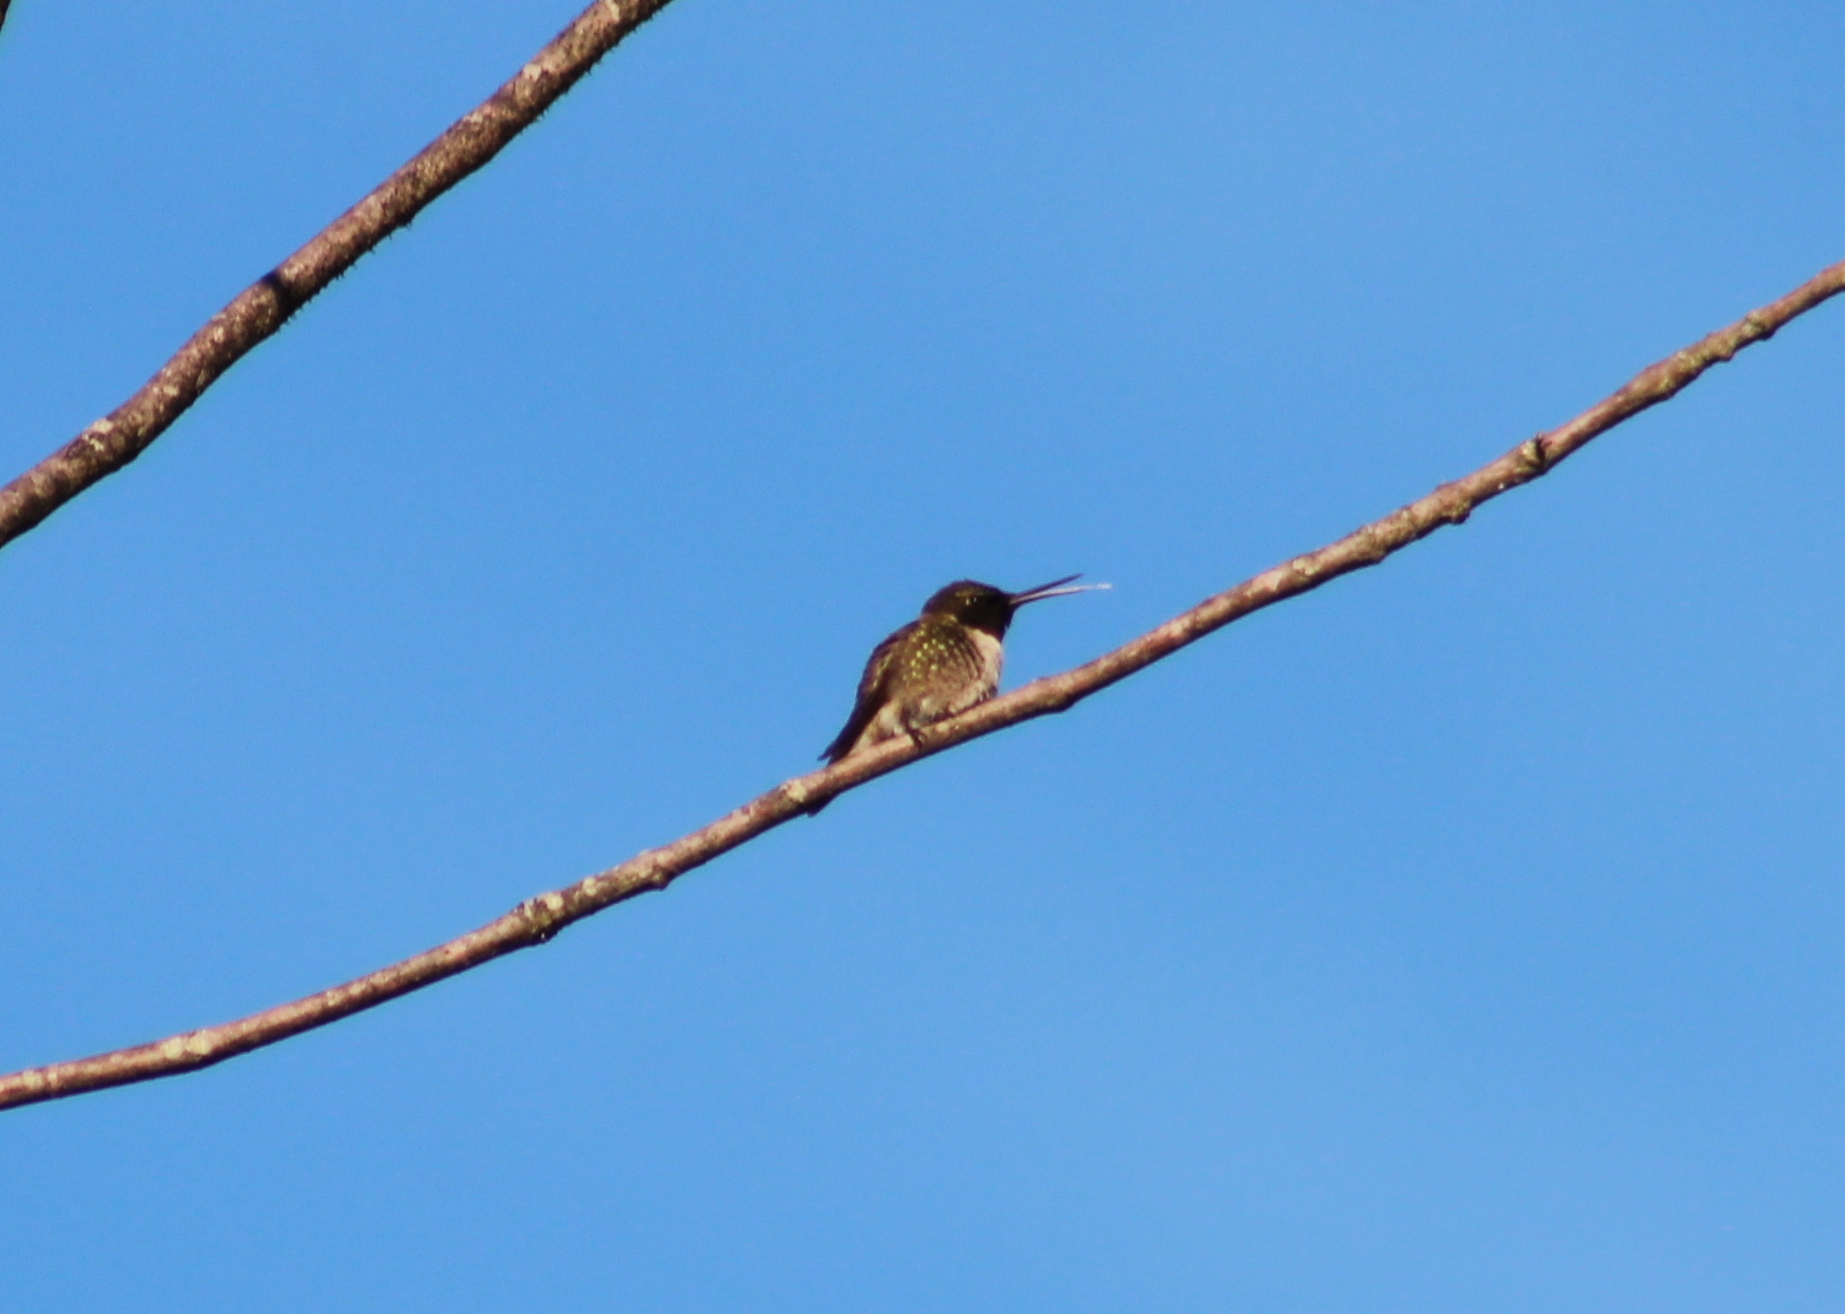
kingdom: Animalia
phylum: Chordata
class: Aves
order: Apodiformes
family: Trochilidae
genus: Archilochus
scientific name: Archilochus colubris
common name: Ruby-throated hummingbird
